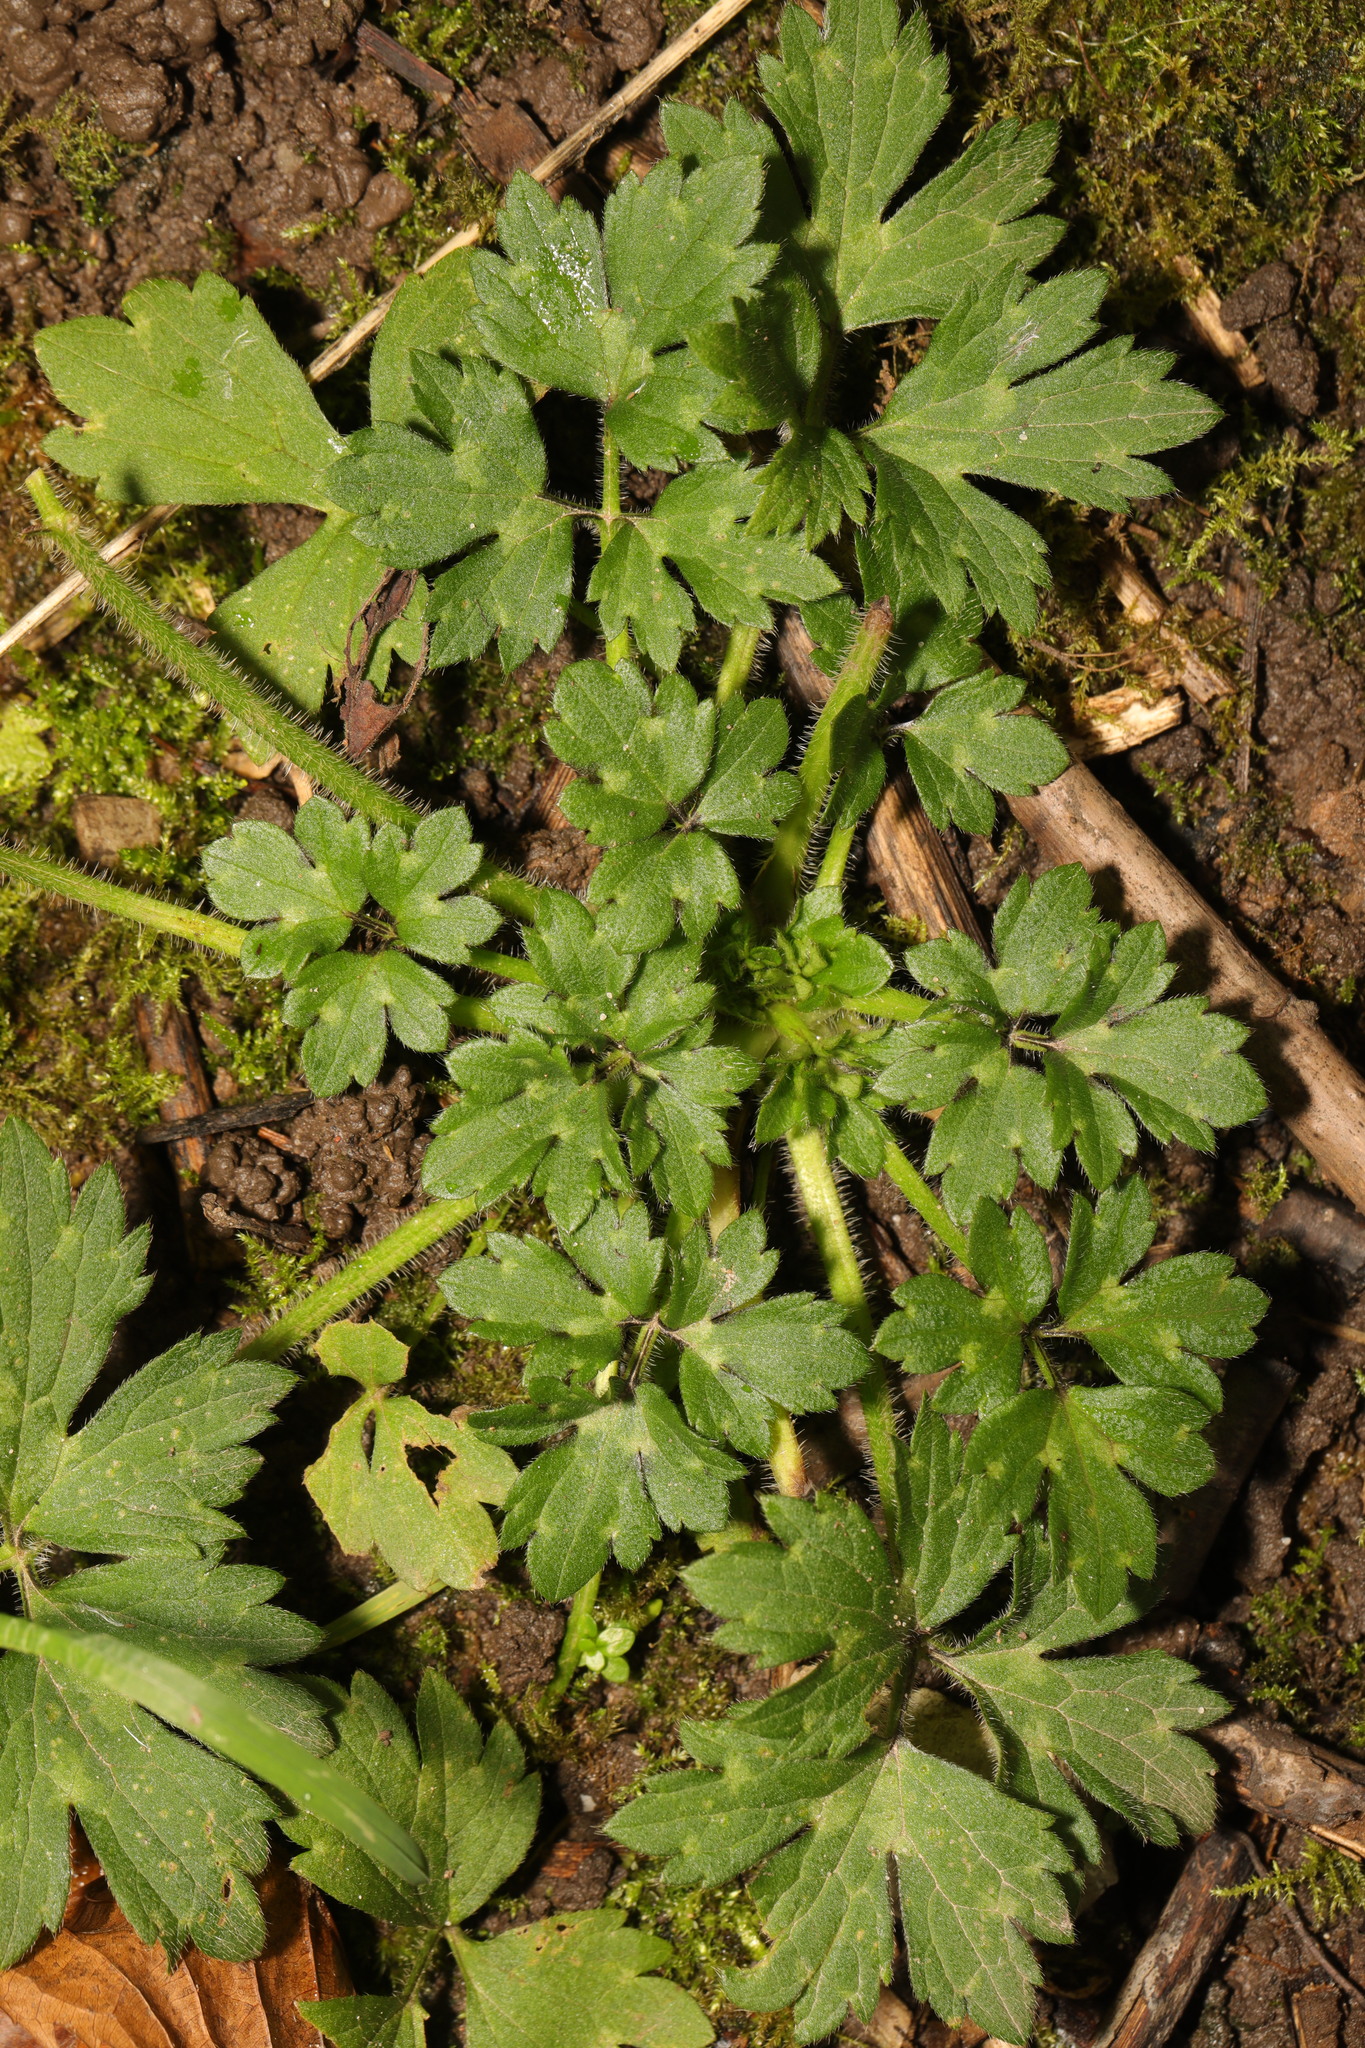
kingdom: Plantae
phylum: Tracheophyta
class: Magnoliopsida
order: Ranunculales
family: Ranunculaceae
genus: Ranunculus
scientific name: Ranunculus repens
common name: Creeping buttercup
